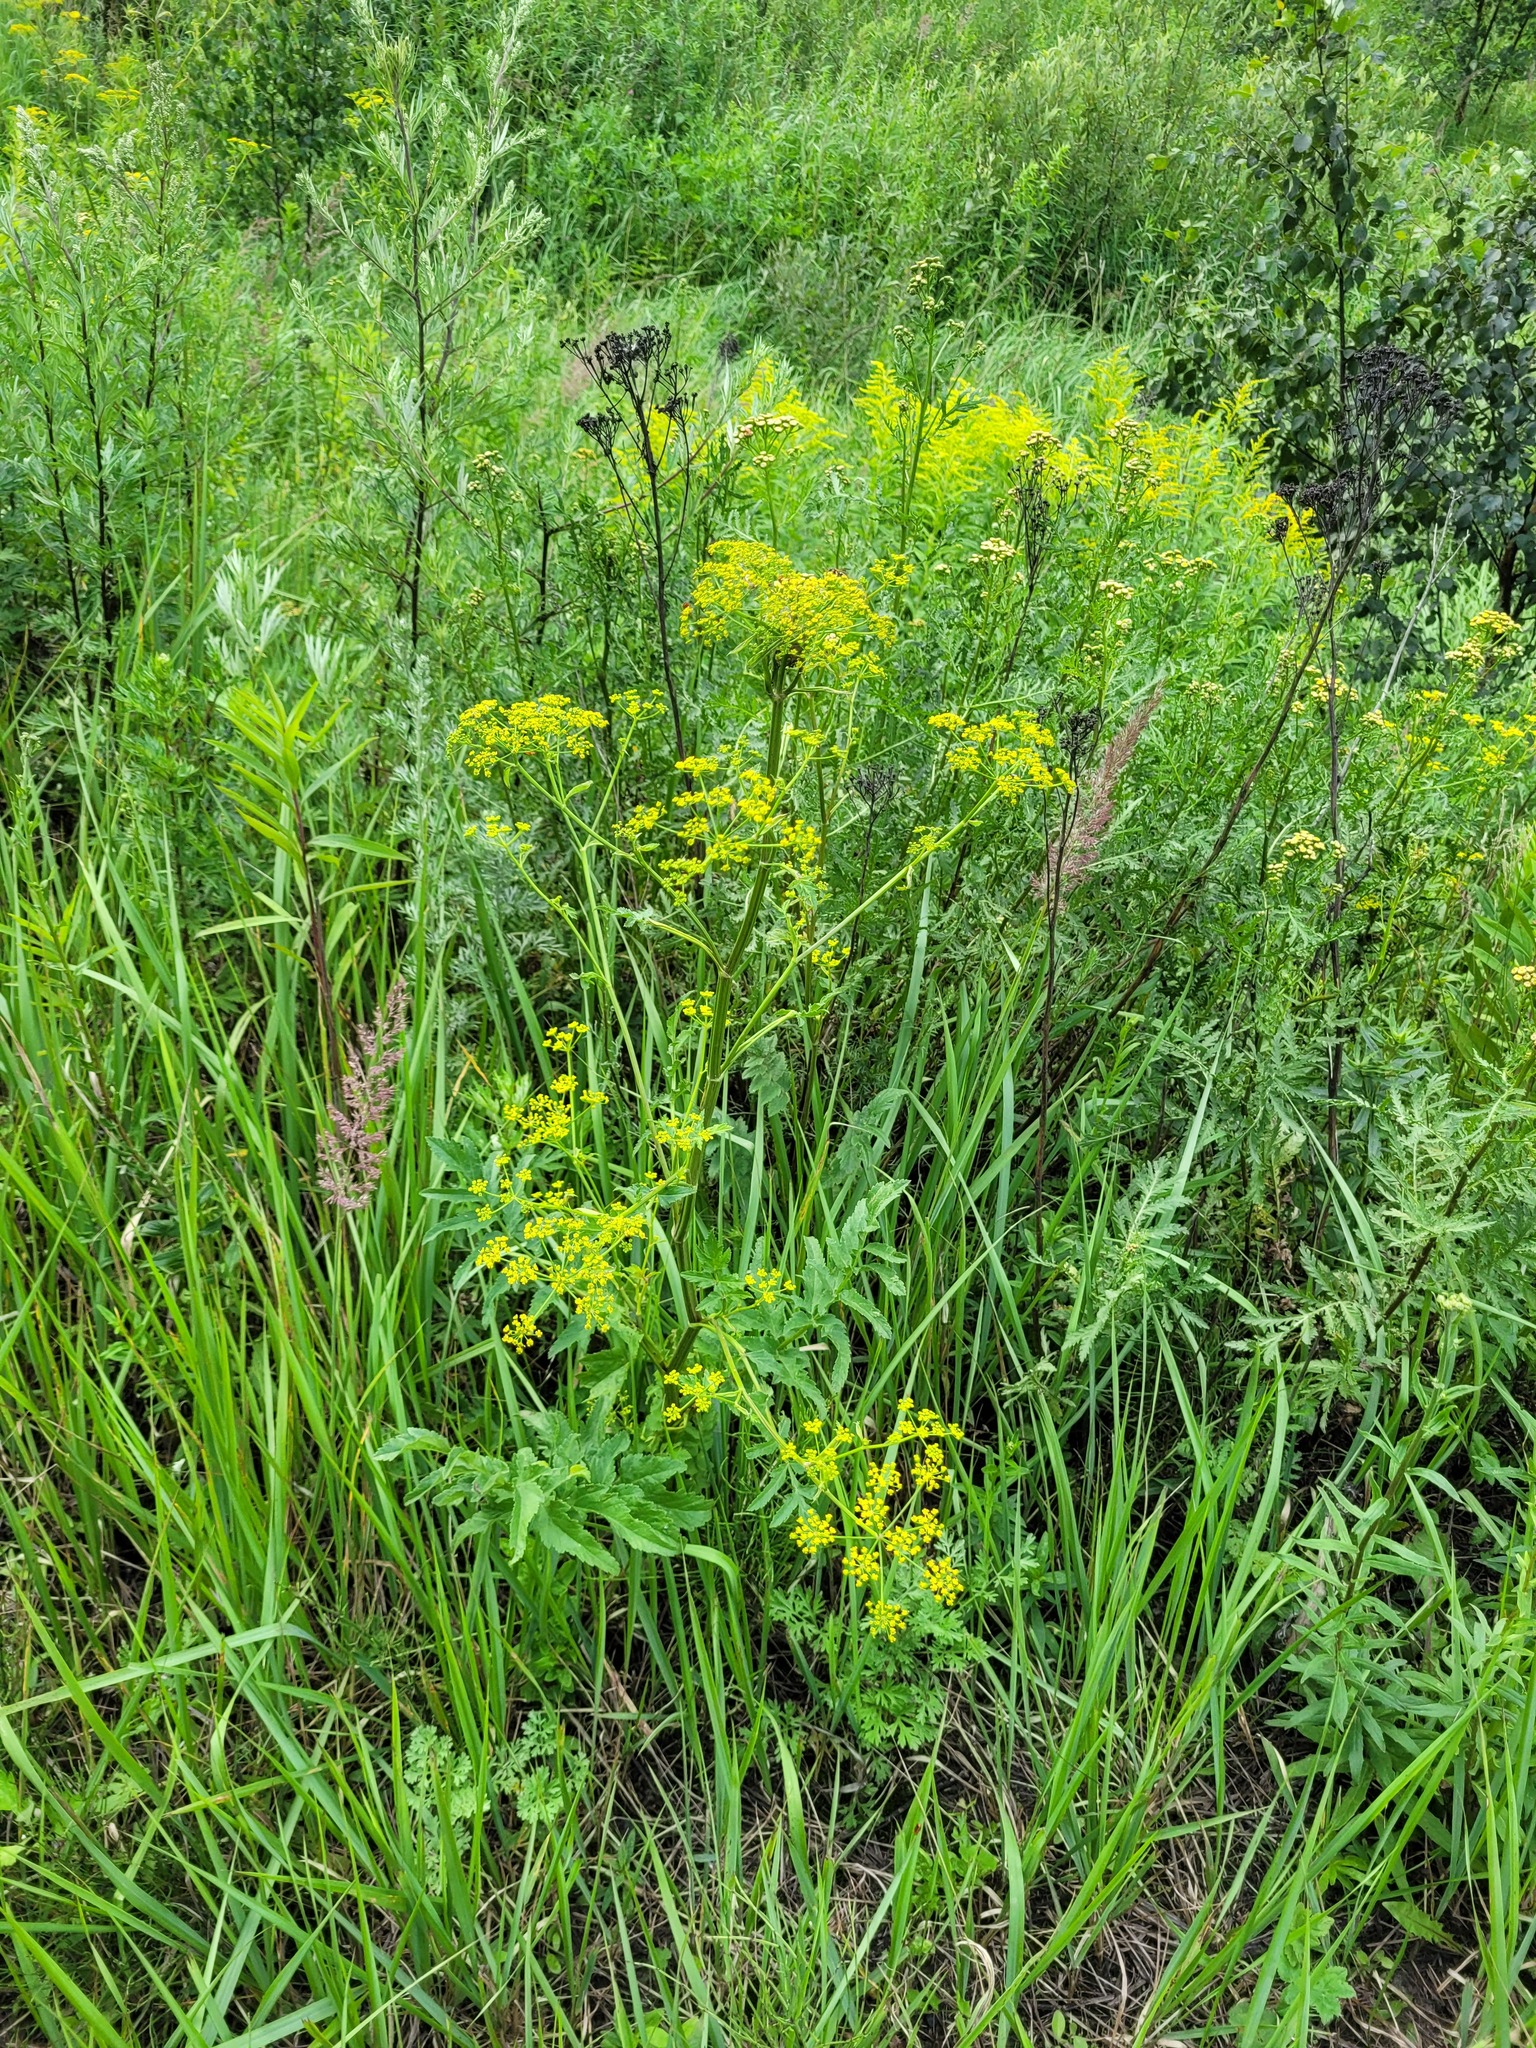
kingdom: Plantae
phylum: Tracheophyta
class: Magnoliopsida
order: Apiales
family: Apiaceae
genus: Pastinaca
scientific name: Pastinaca sativa
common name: Wild parsnip
